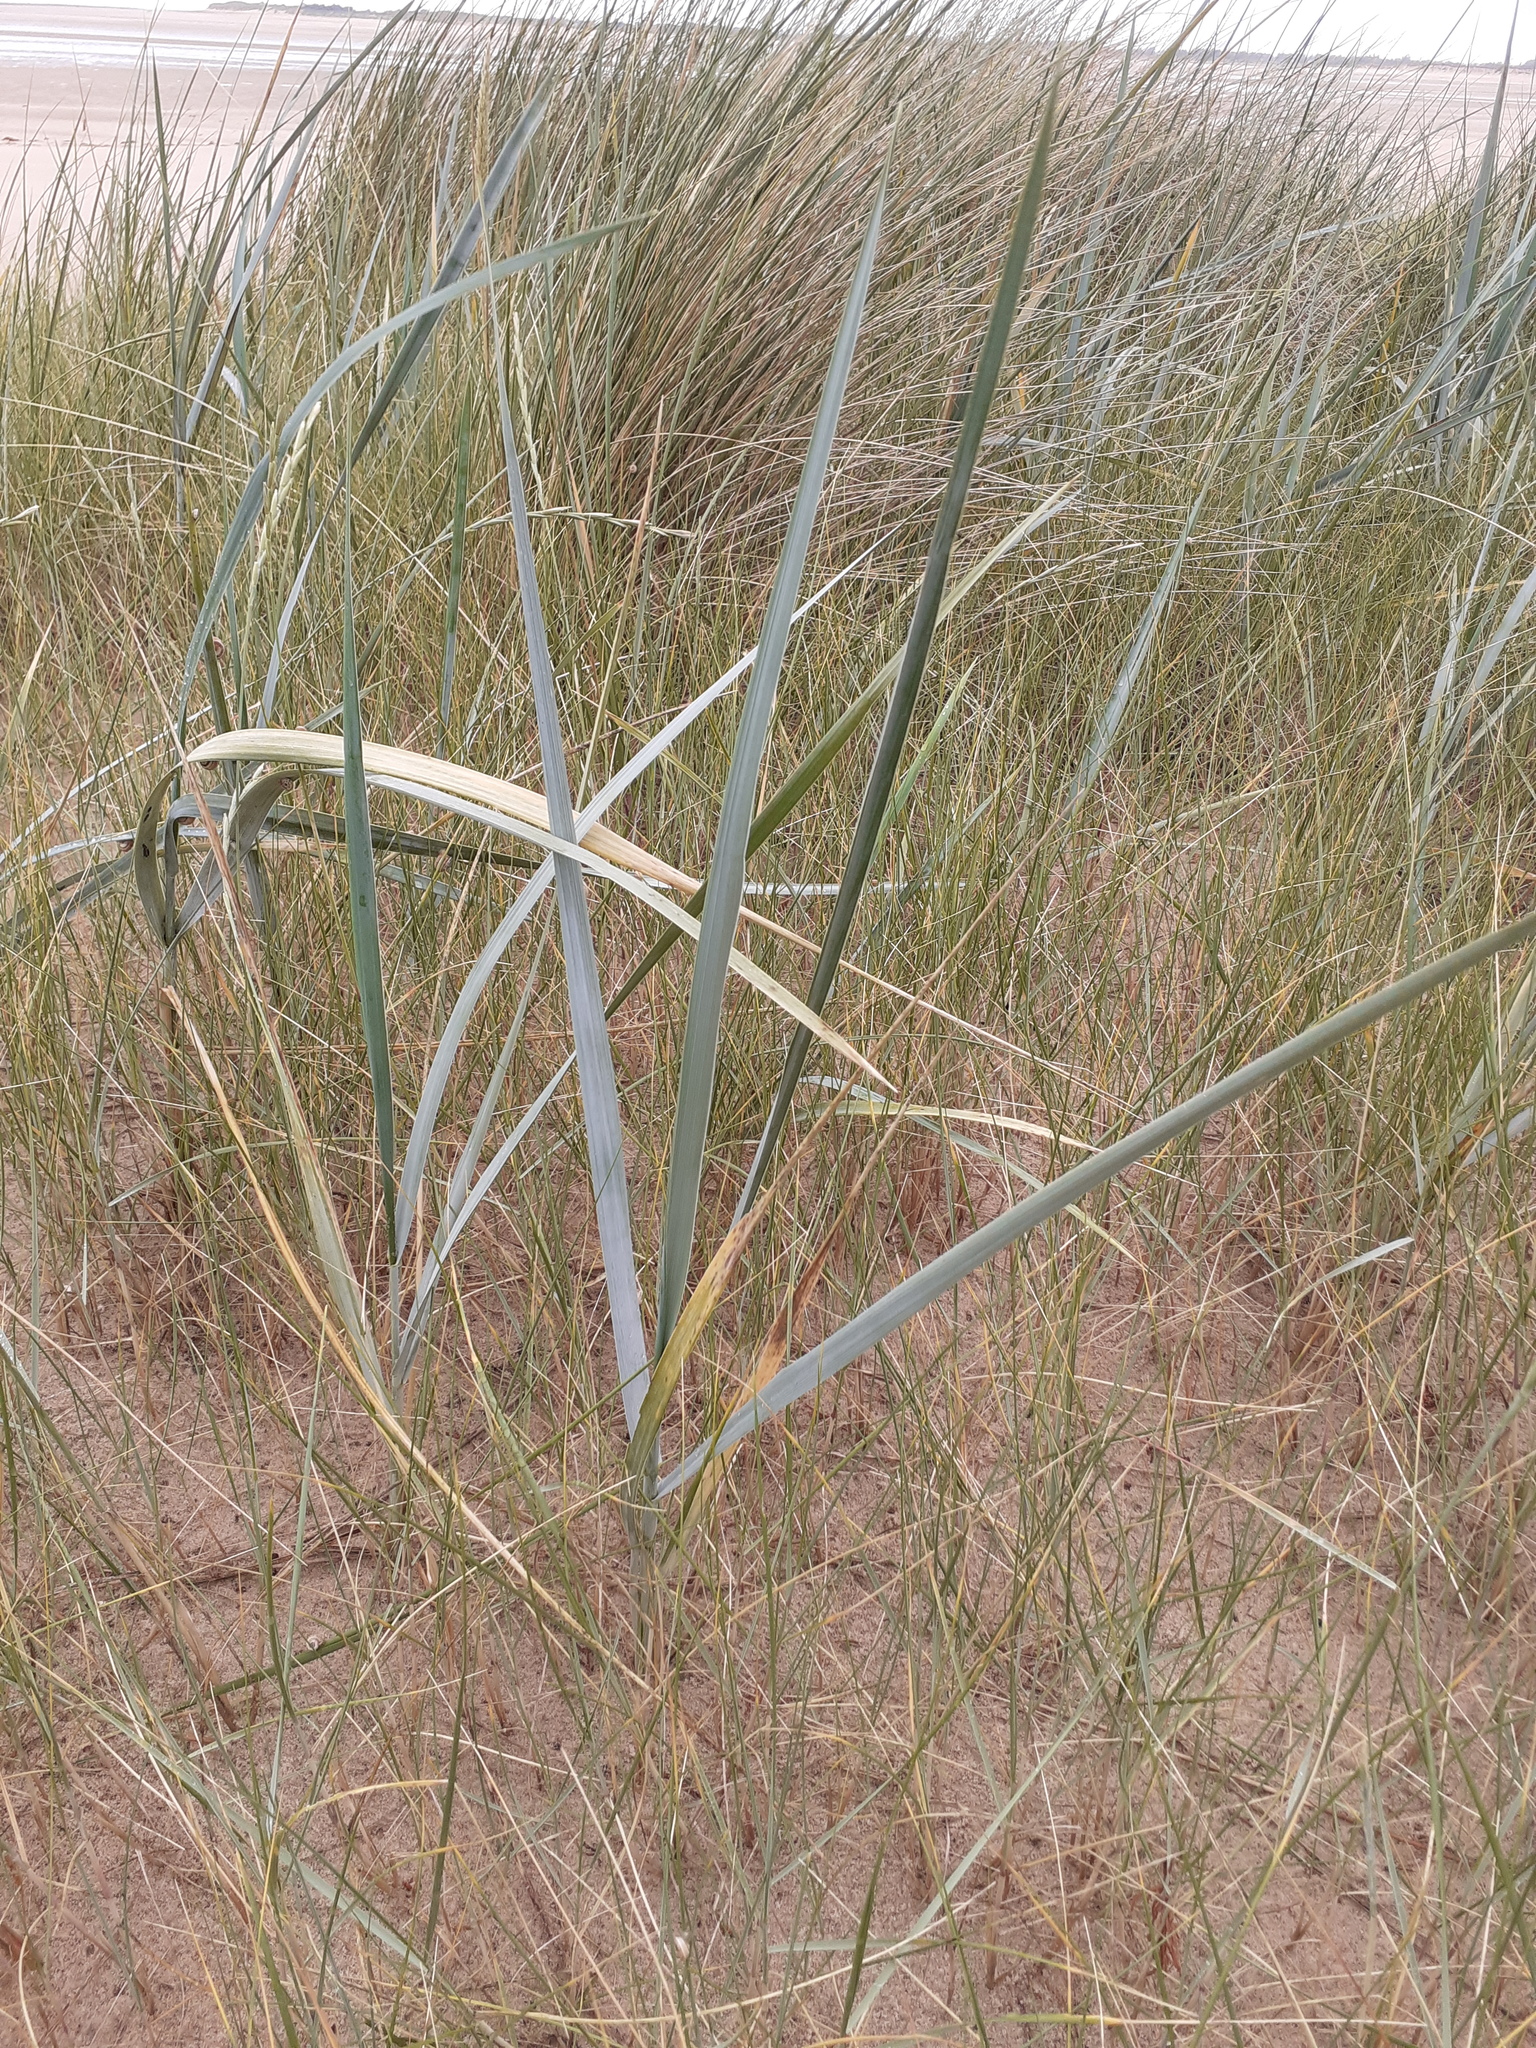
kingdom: Plantae
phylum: Tracheophyta
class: Liliopsida
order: Poales
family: Poaceae
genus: Leymus
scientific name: Leymus arenarius
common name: Lyme-grass
